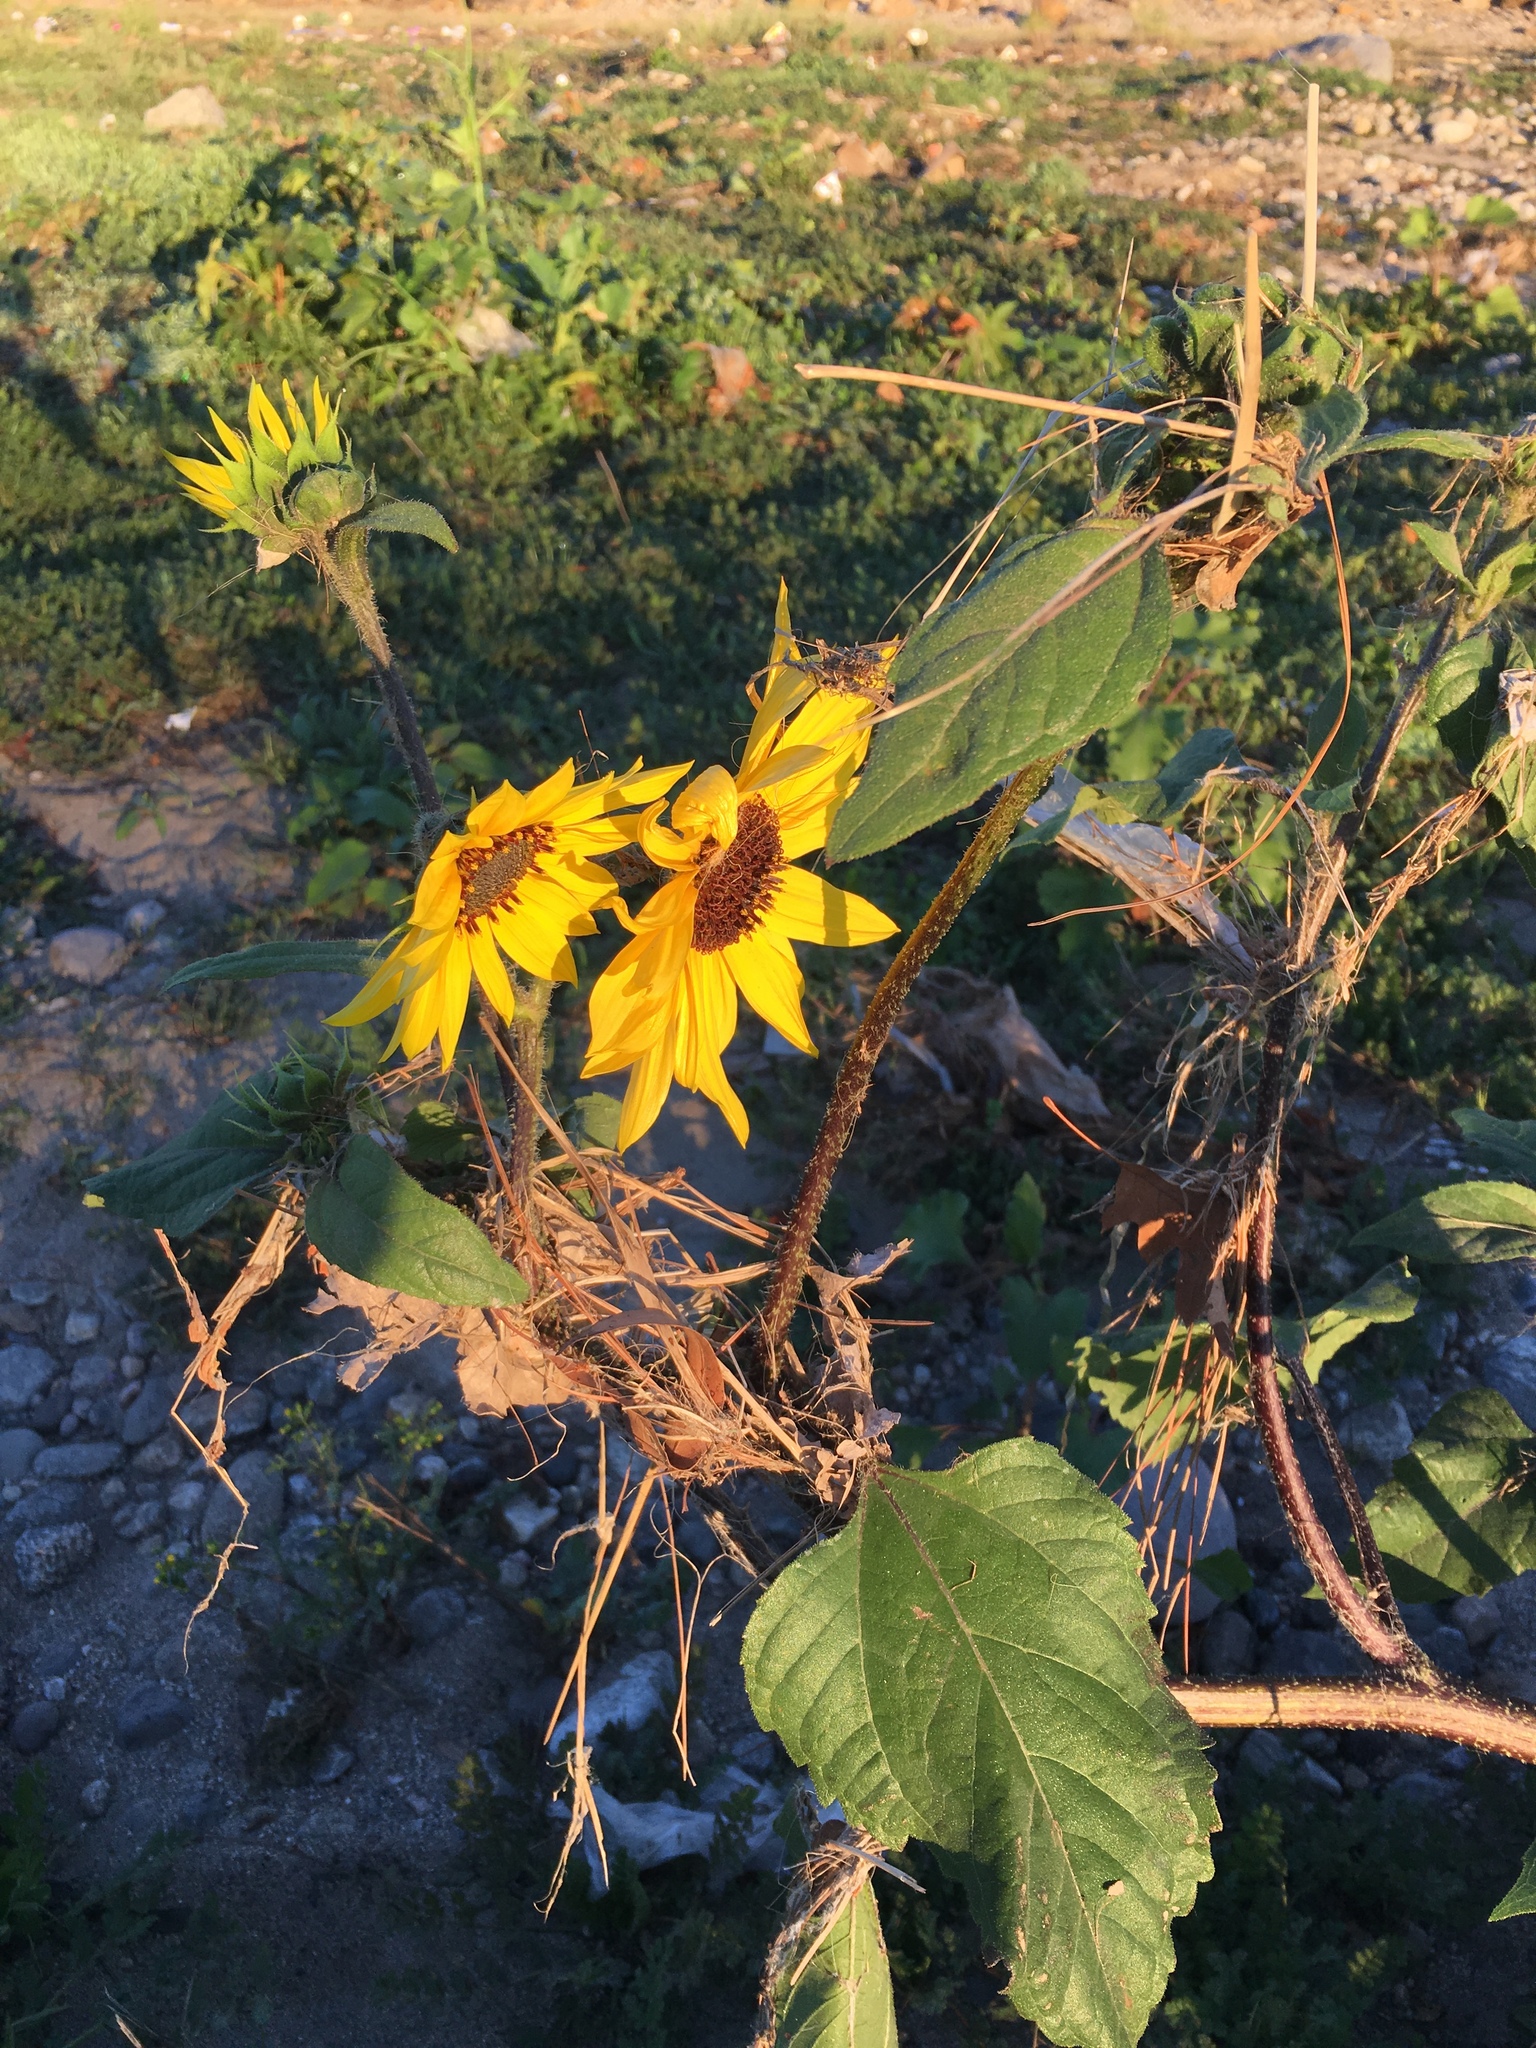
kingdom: Plantae
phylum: Tracheophyta
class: Magnoliopsida
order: Asterales
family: Asteraceae
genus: Helianthus
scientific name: Helianthus annuus
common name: Sunflower
